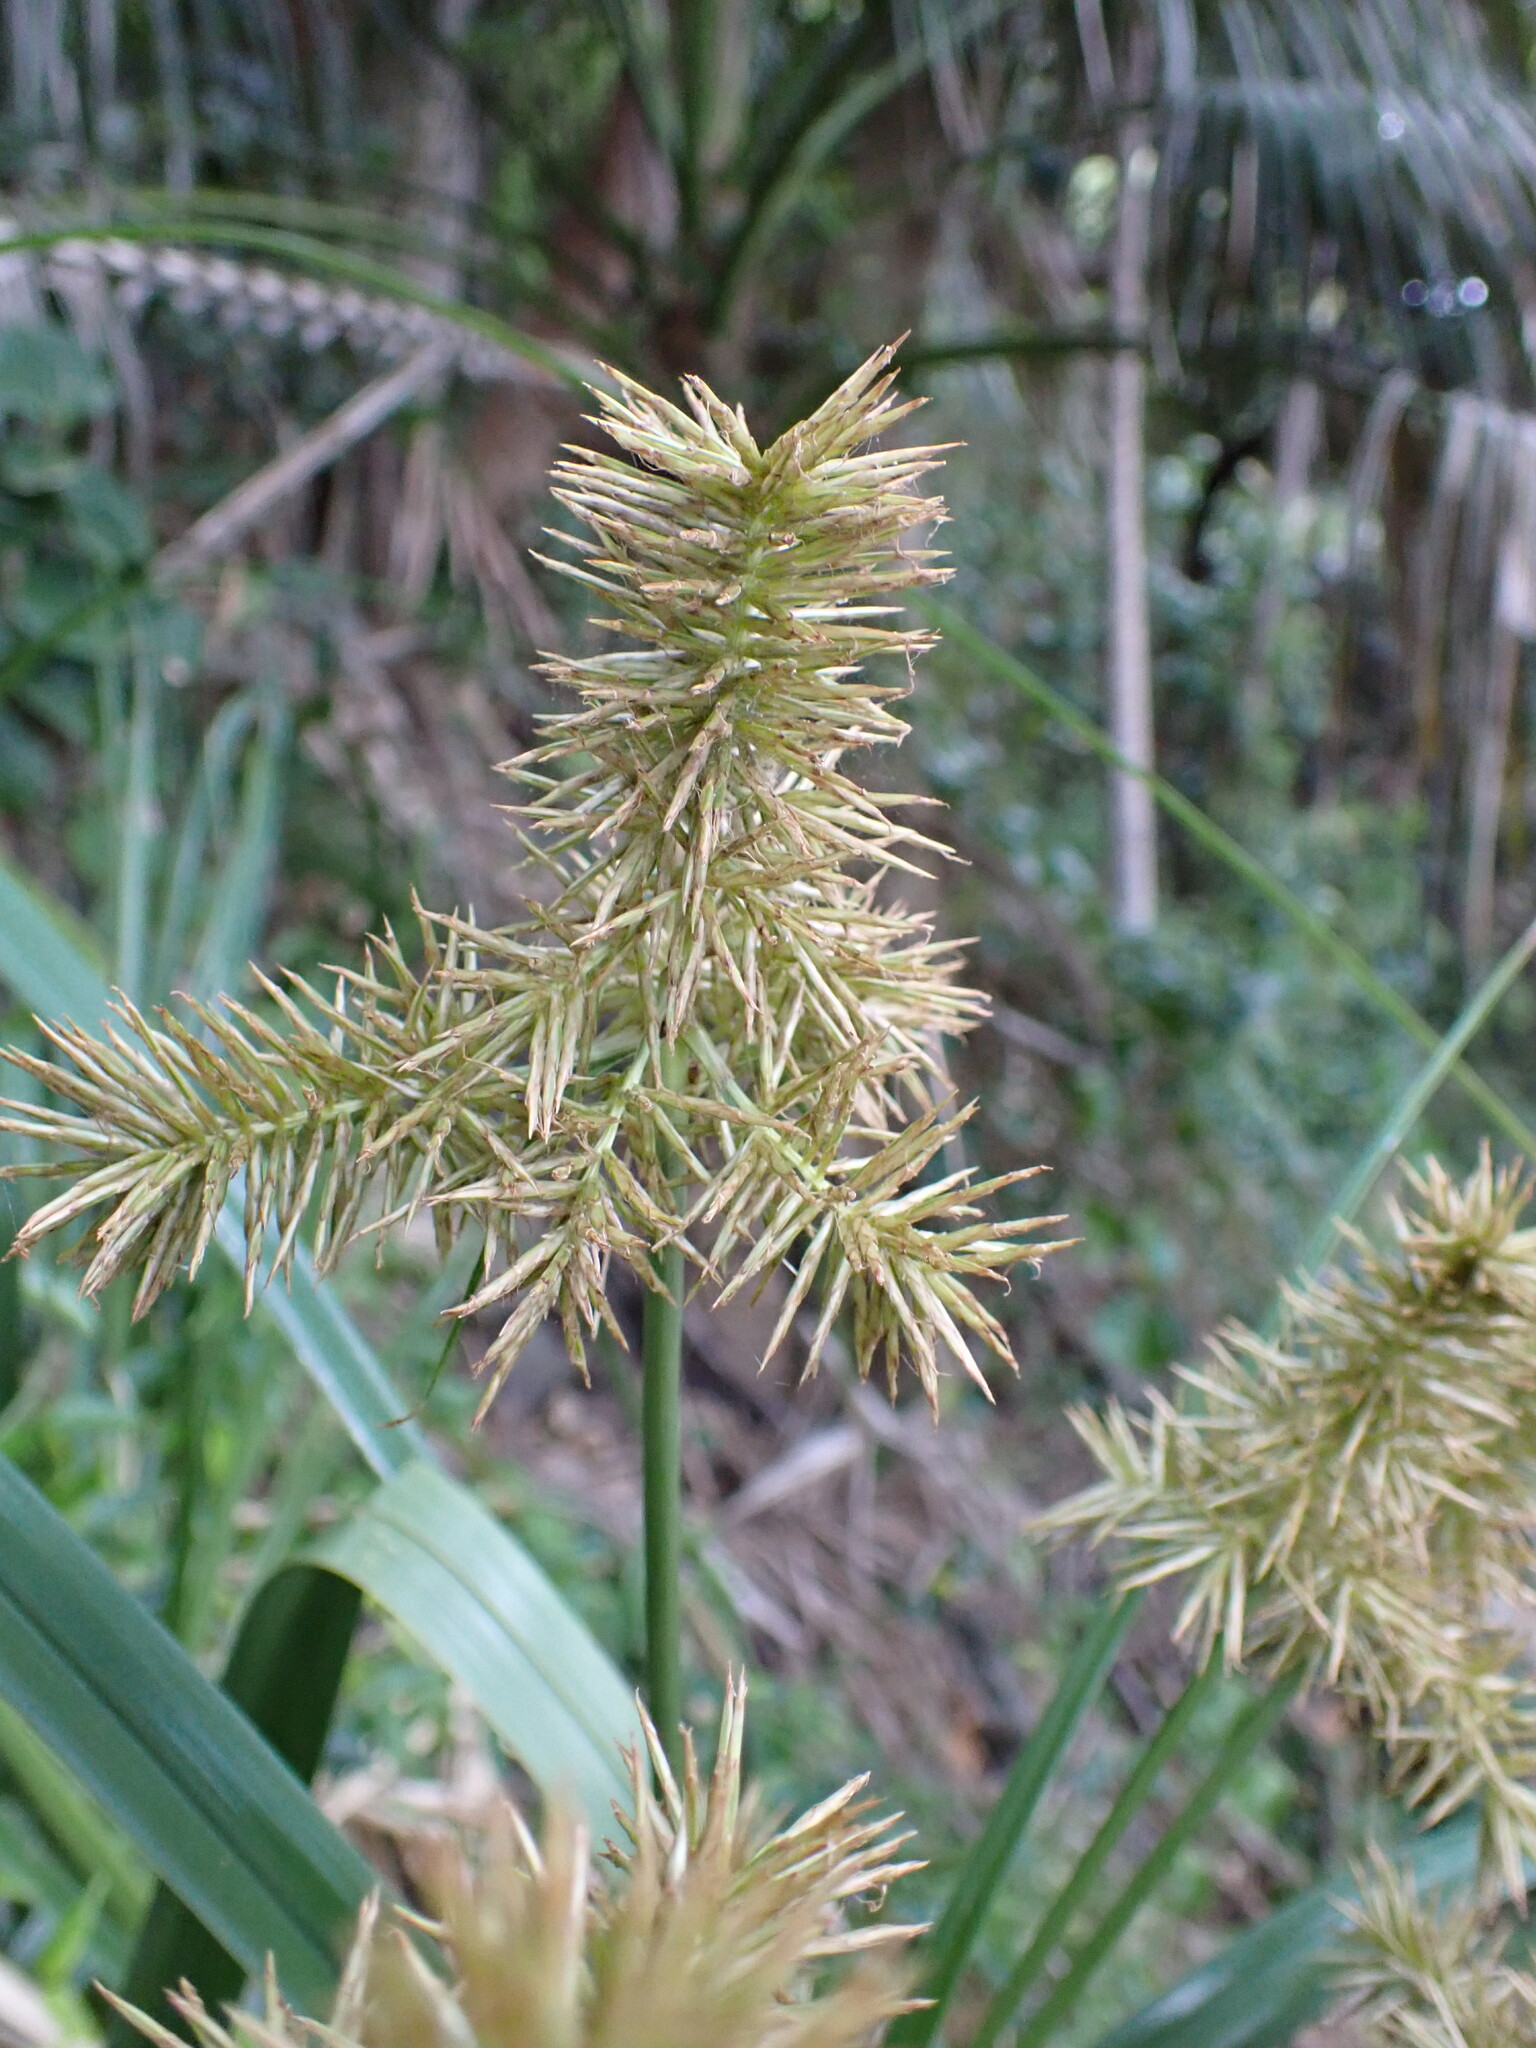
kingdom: Plantae
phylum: Tracheophyta
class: Liliopsida
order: Poales
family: Cyperaceae
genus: Cyperus
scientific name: Cyperus lucidus
